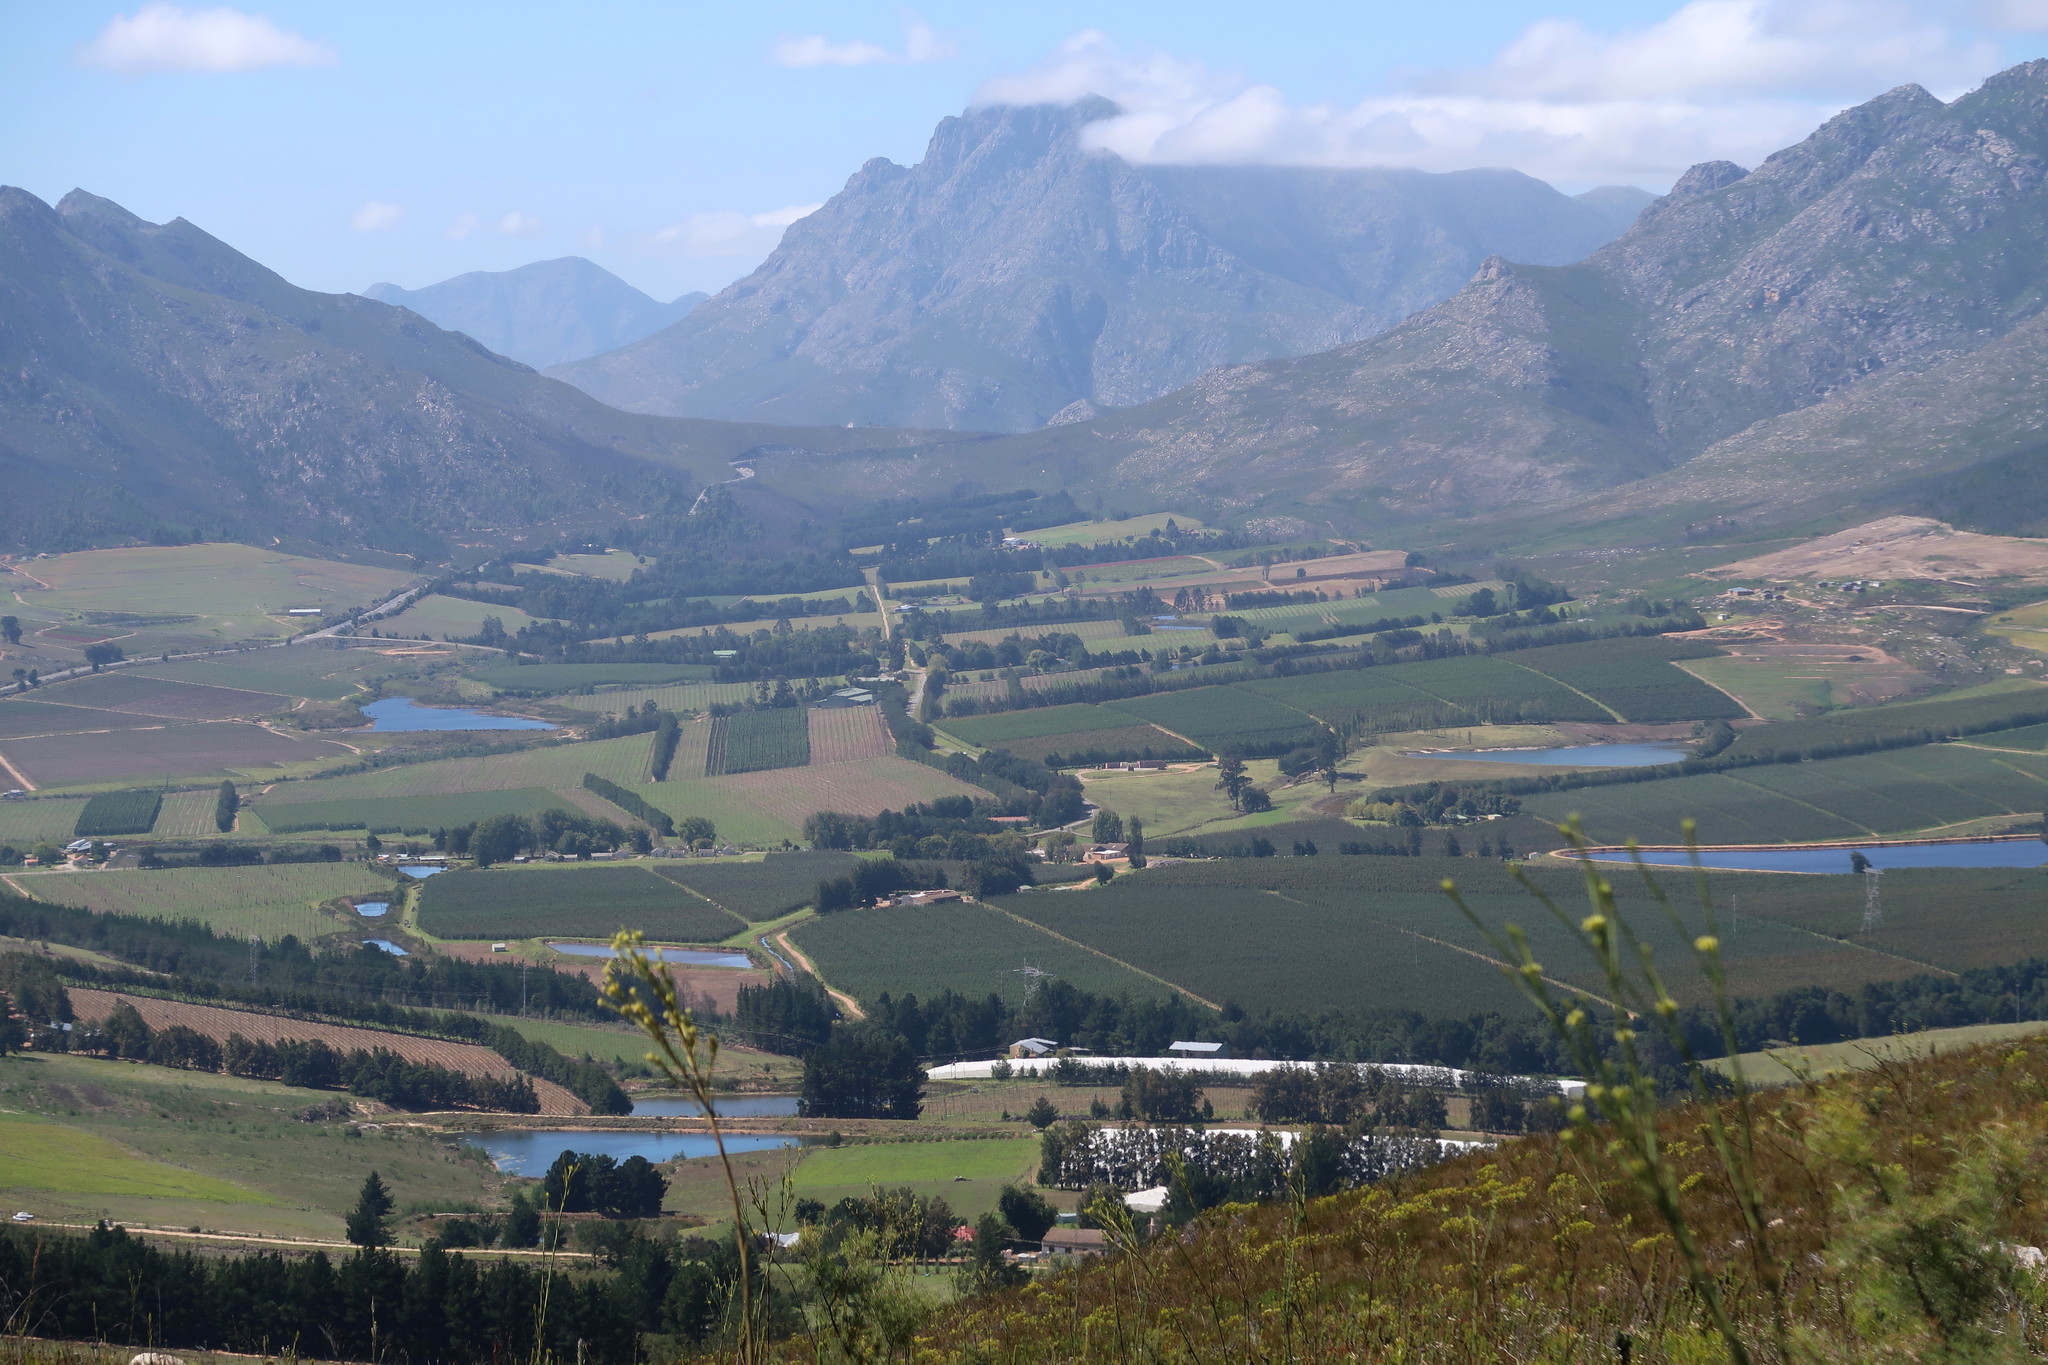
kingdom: Plantae
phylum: Tracheophyta
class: Magnoliopsida
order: Fabales
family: Fabaceae
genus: Acacia
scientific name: Acacia mearnsii
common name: Black wattle
